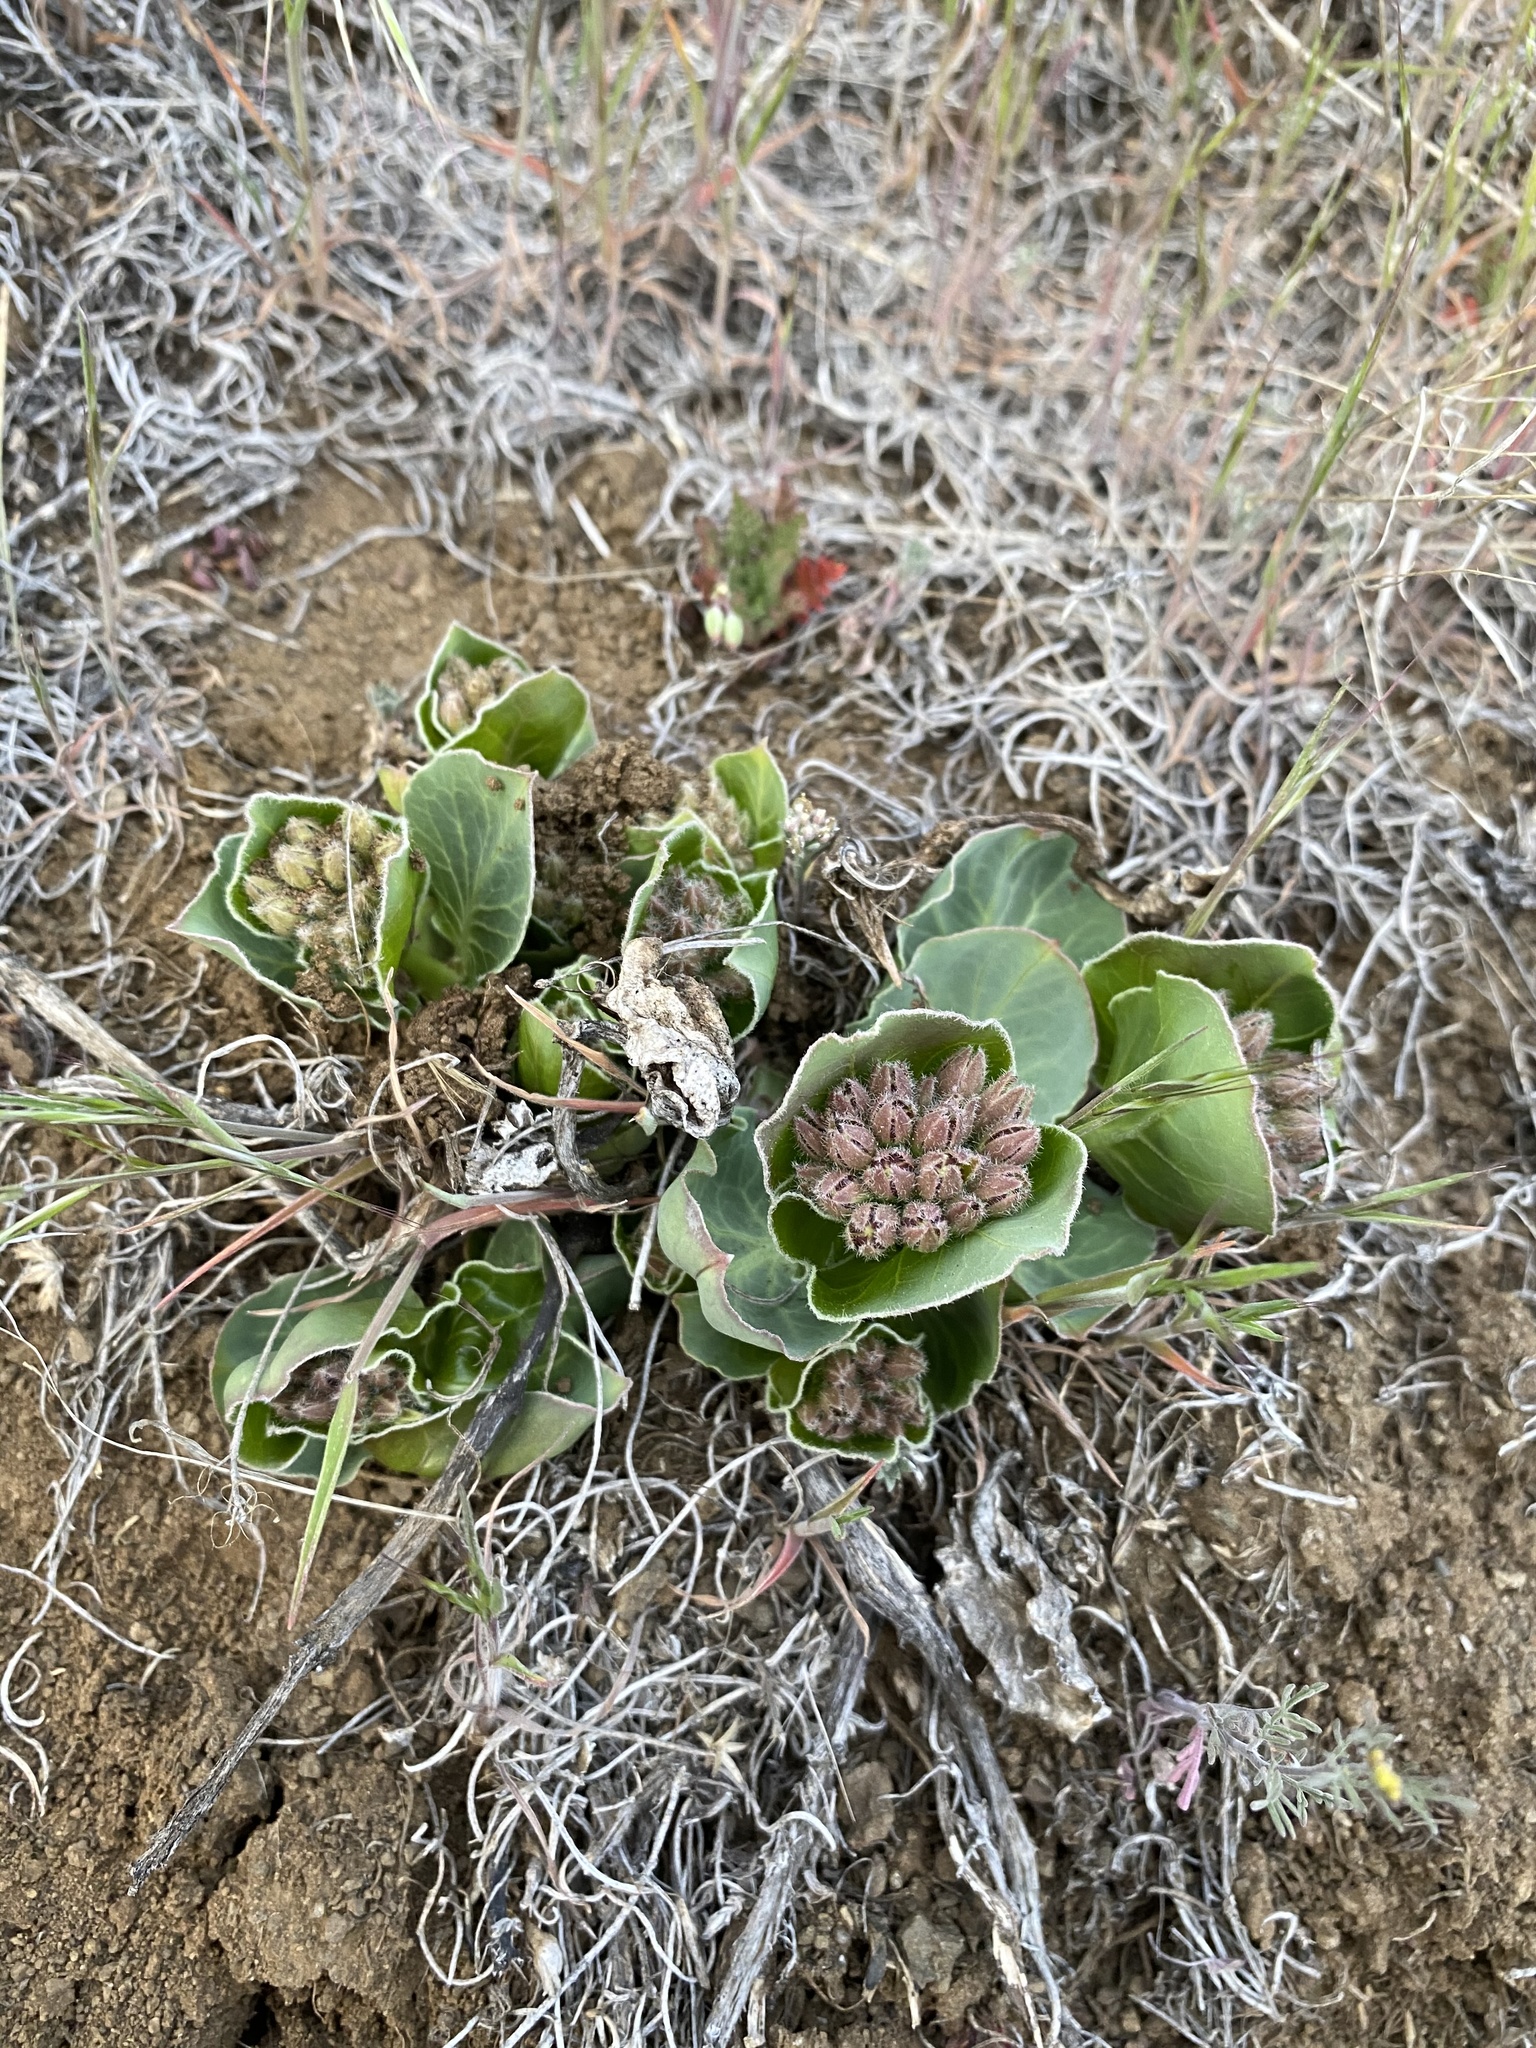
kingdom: Plantae
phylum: Tracheophyta
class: Magnoliopsida
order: Gentianales
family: Apocynaceae
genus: Asclepias
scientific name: Asclepias cryptoceras
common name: Humboldt mountains milkweed
